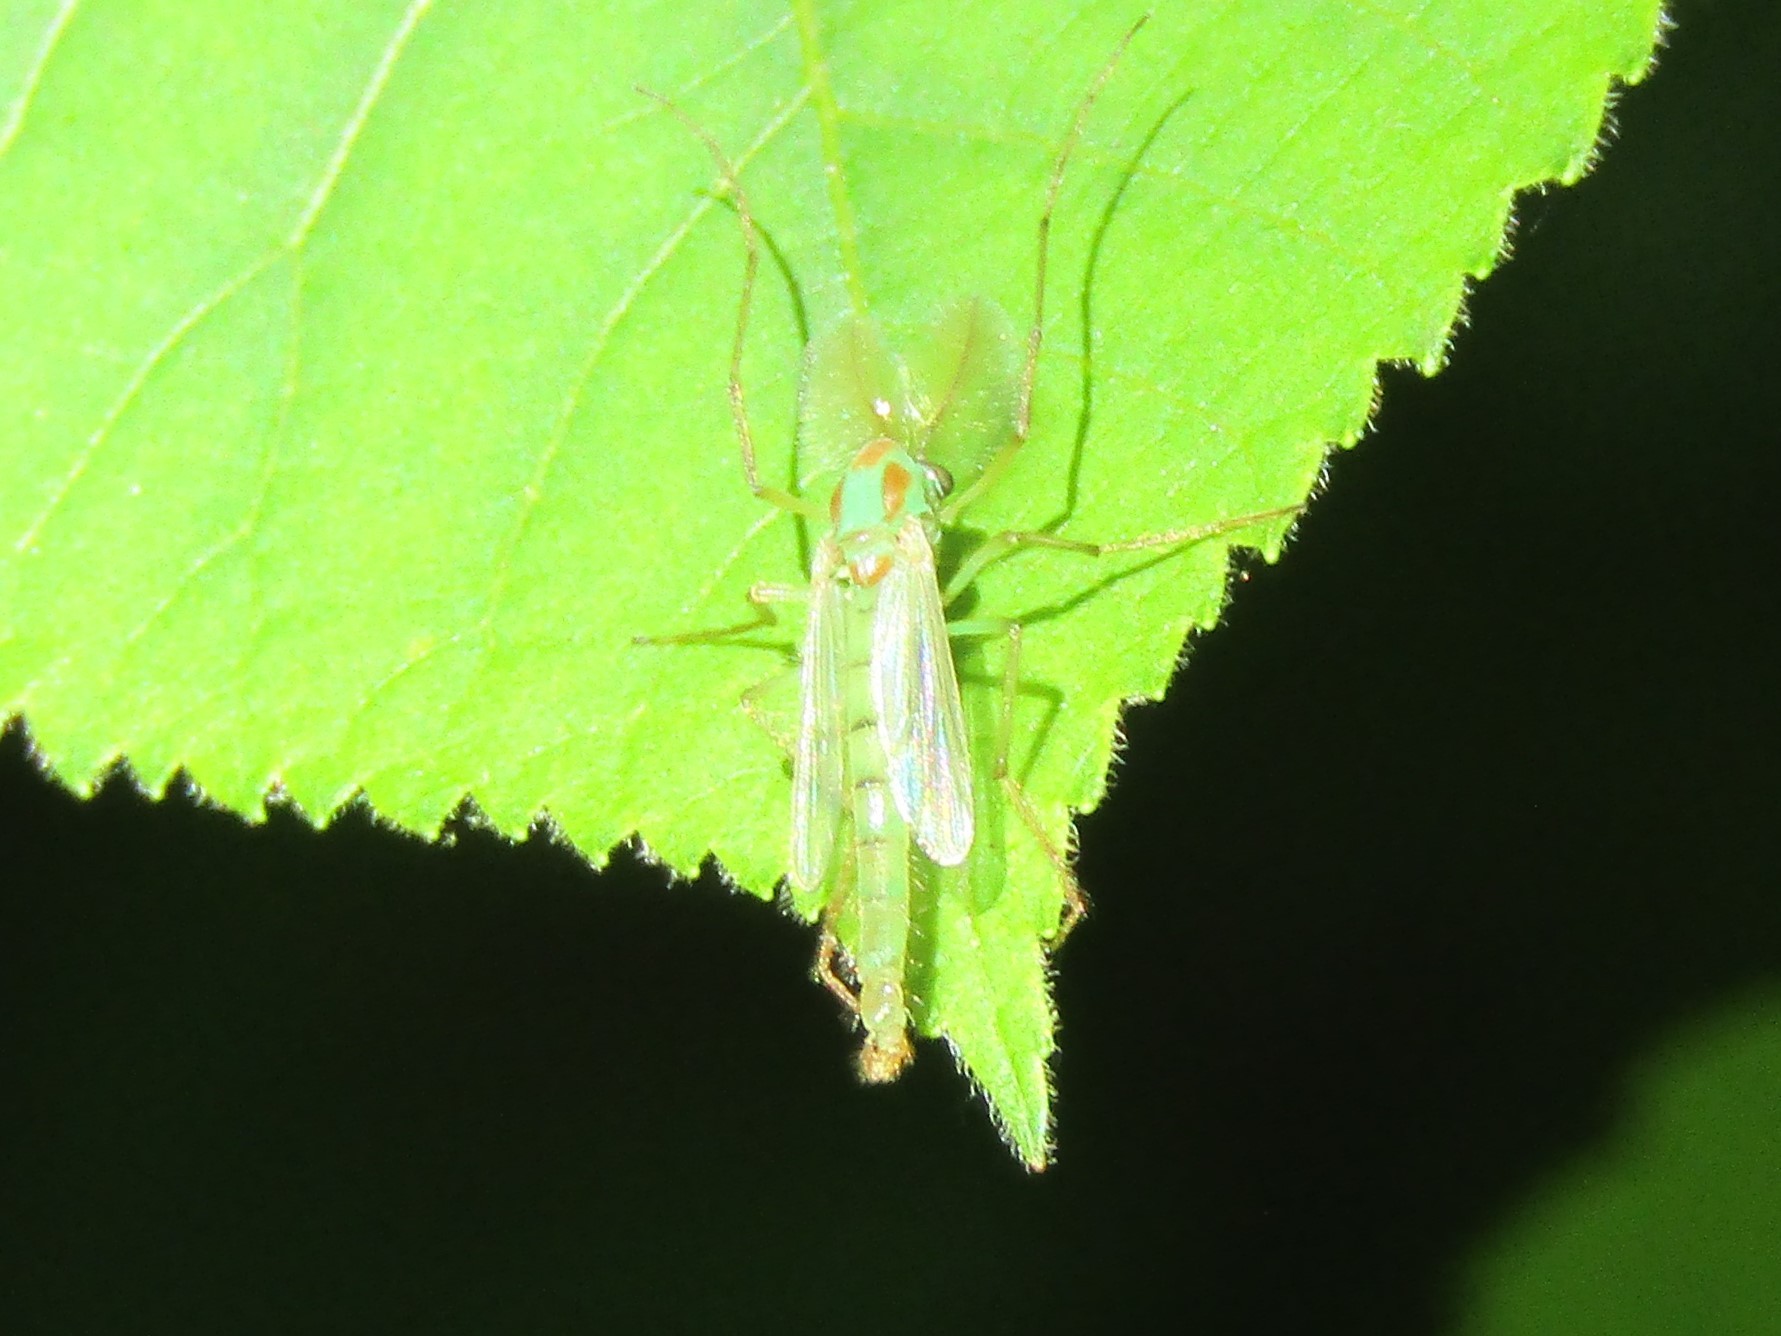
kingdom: Animalia
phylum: Arthropoda
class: Insecta
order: Diptera
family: Chironomidae
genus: Axarus
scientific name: Axarus
